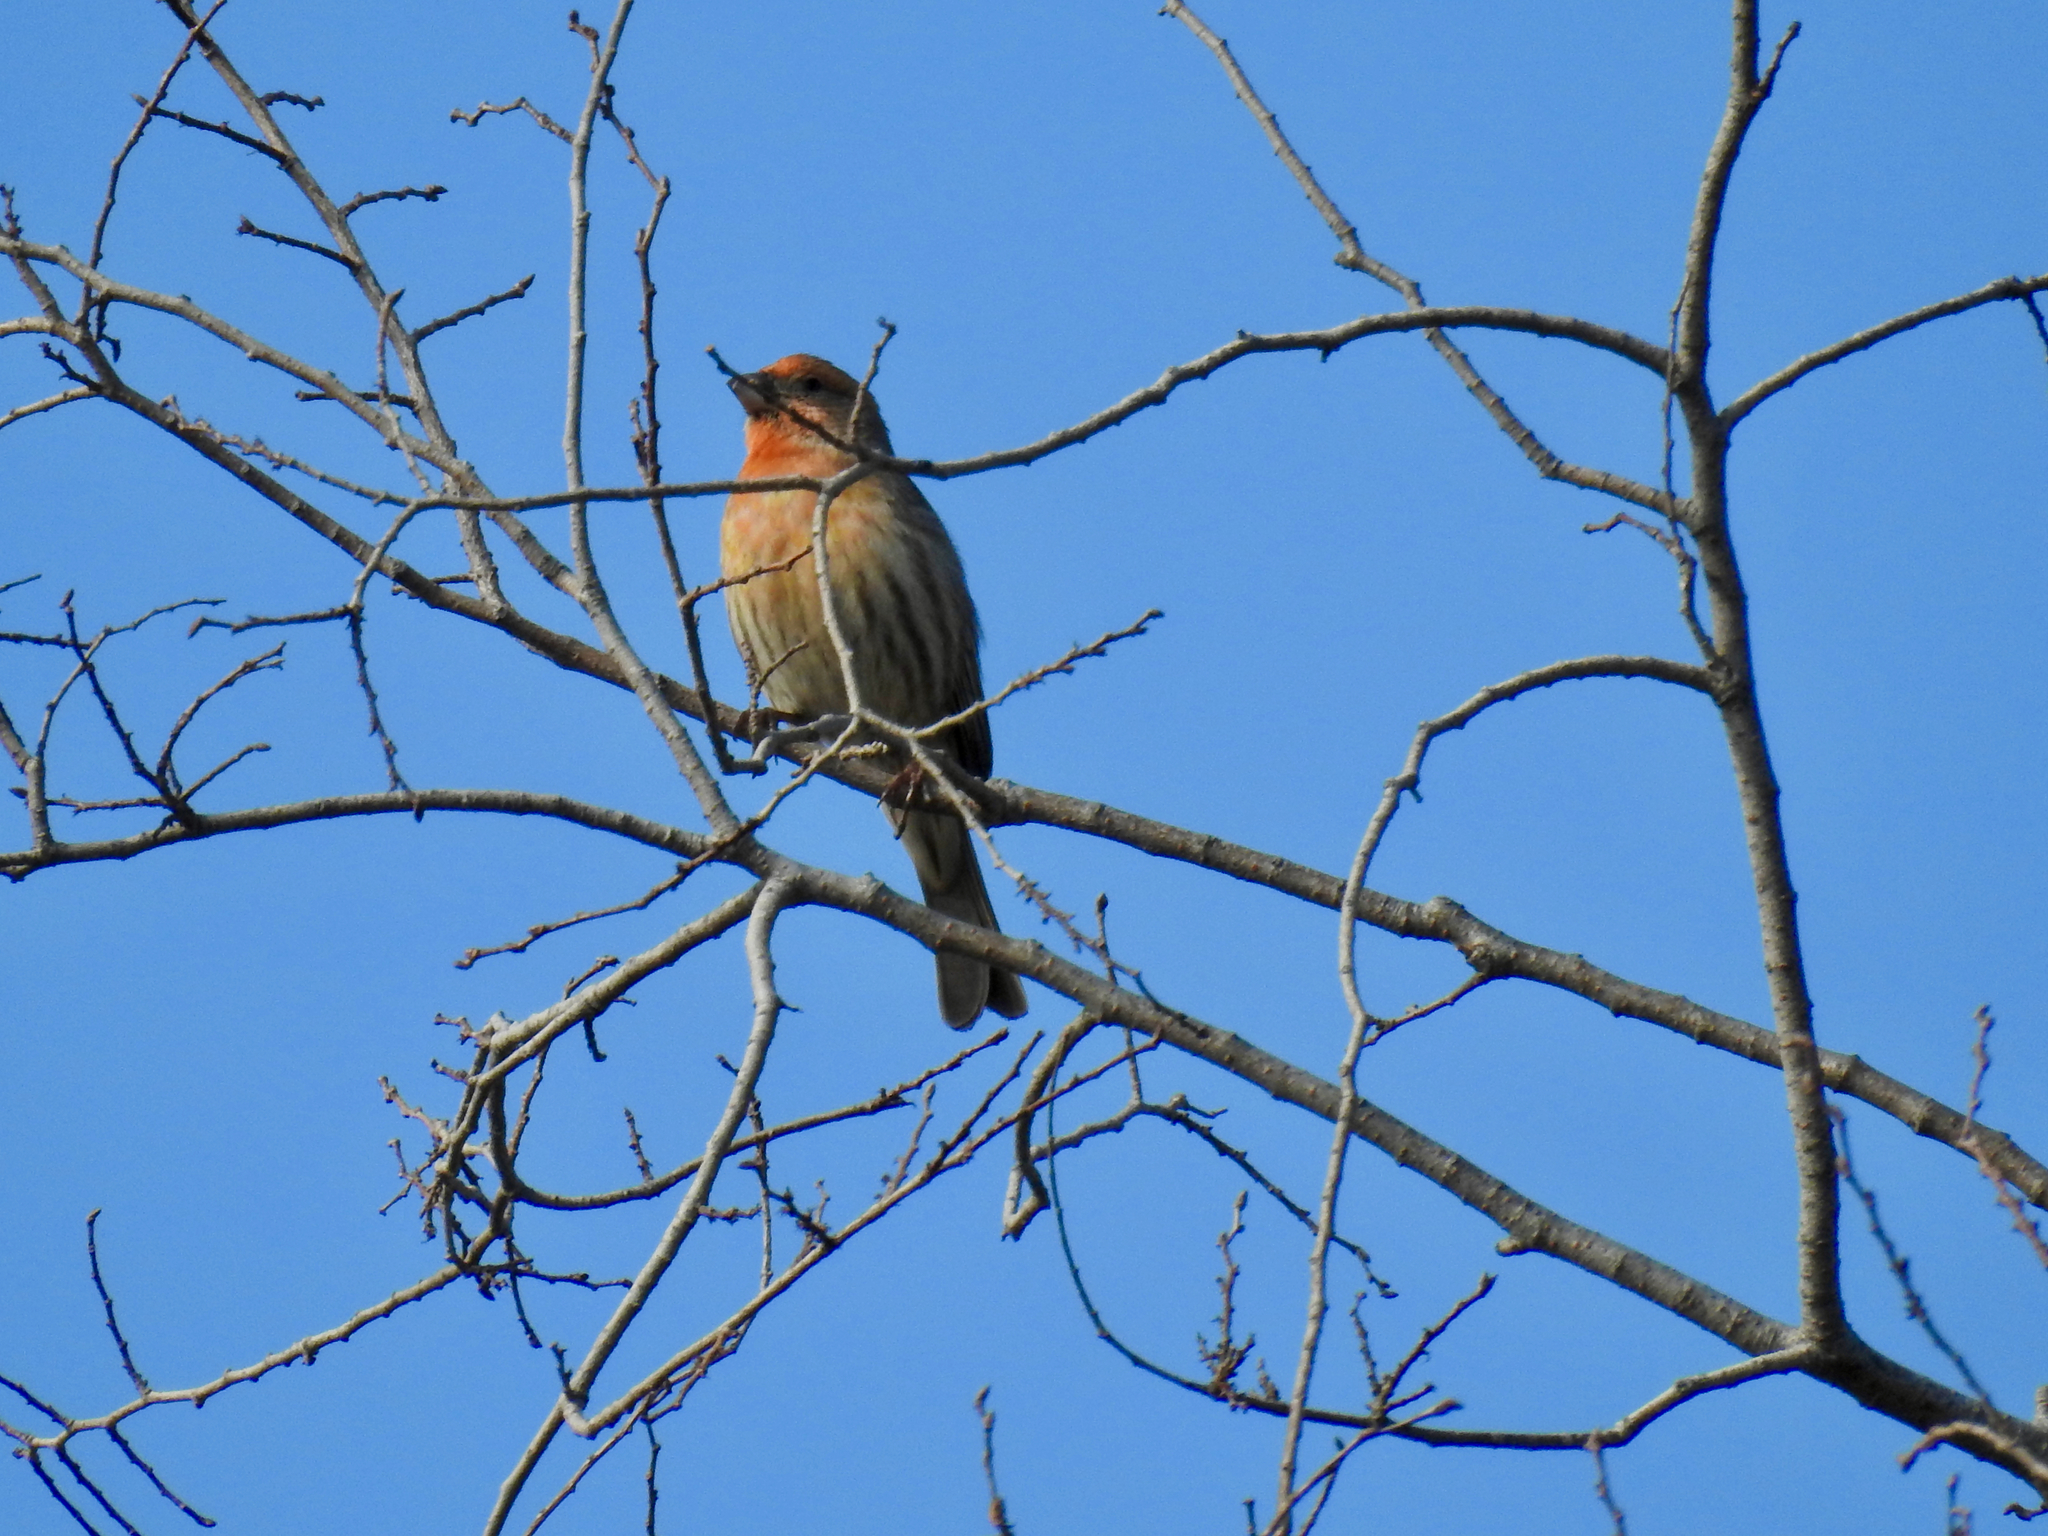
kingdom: Animalia
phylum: Chordata
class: Aves
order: Passeriformes
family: Fringillidae
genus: Haemorhous
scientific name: Haemorhous mexicanus
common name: House finch
